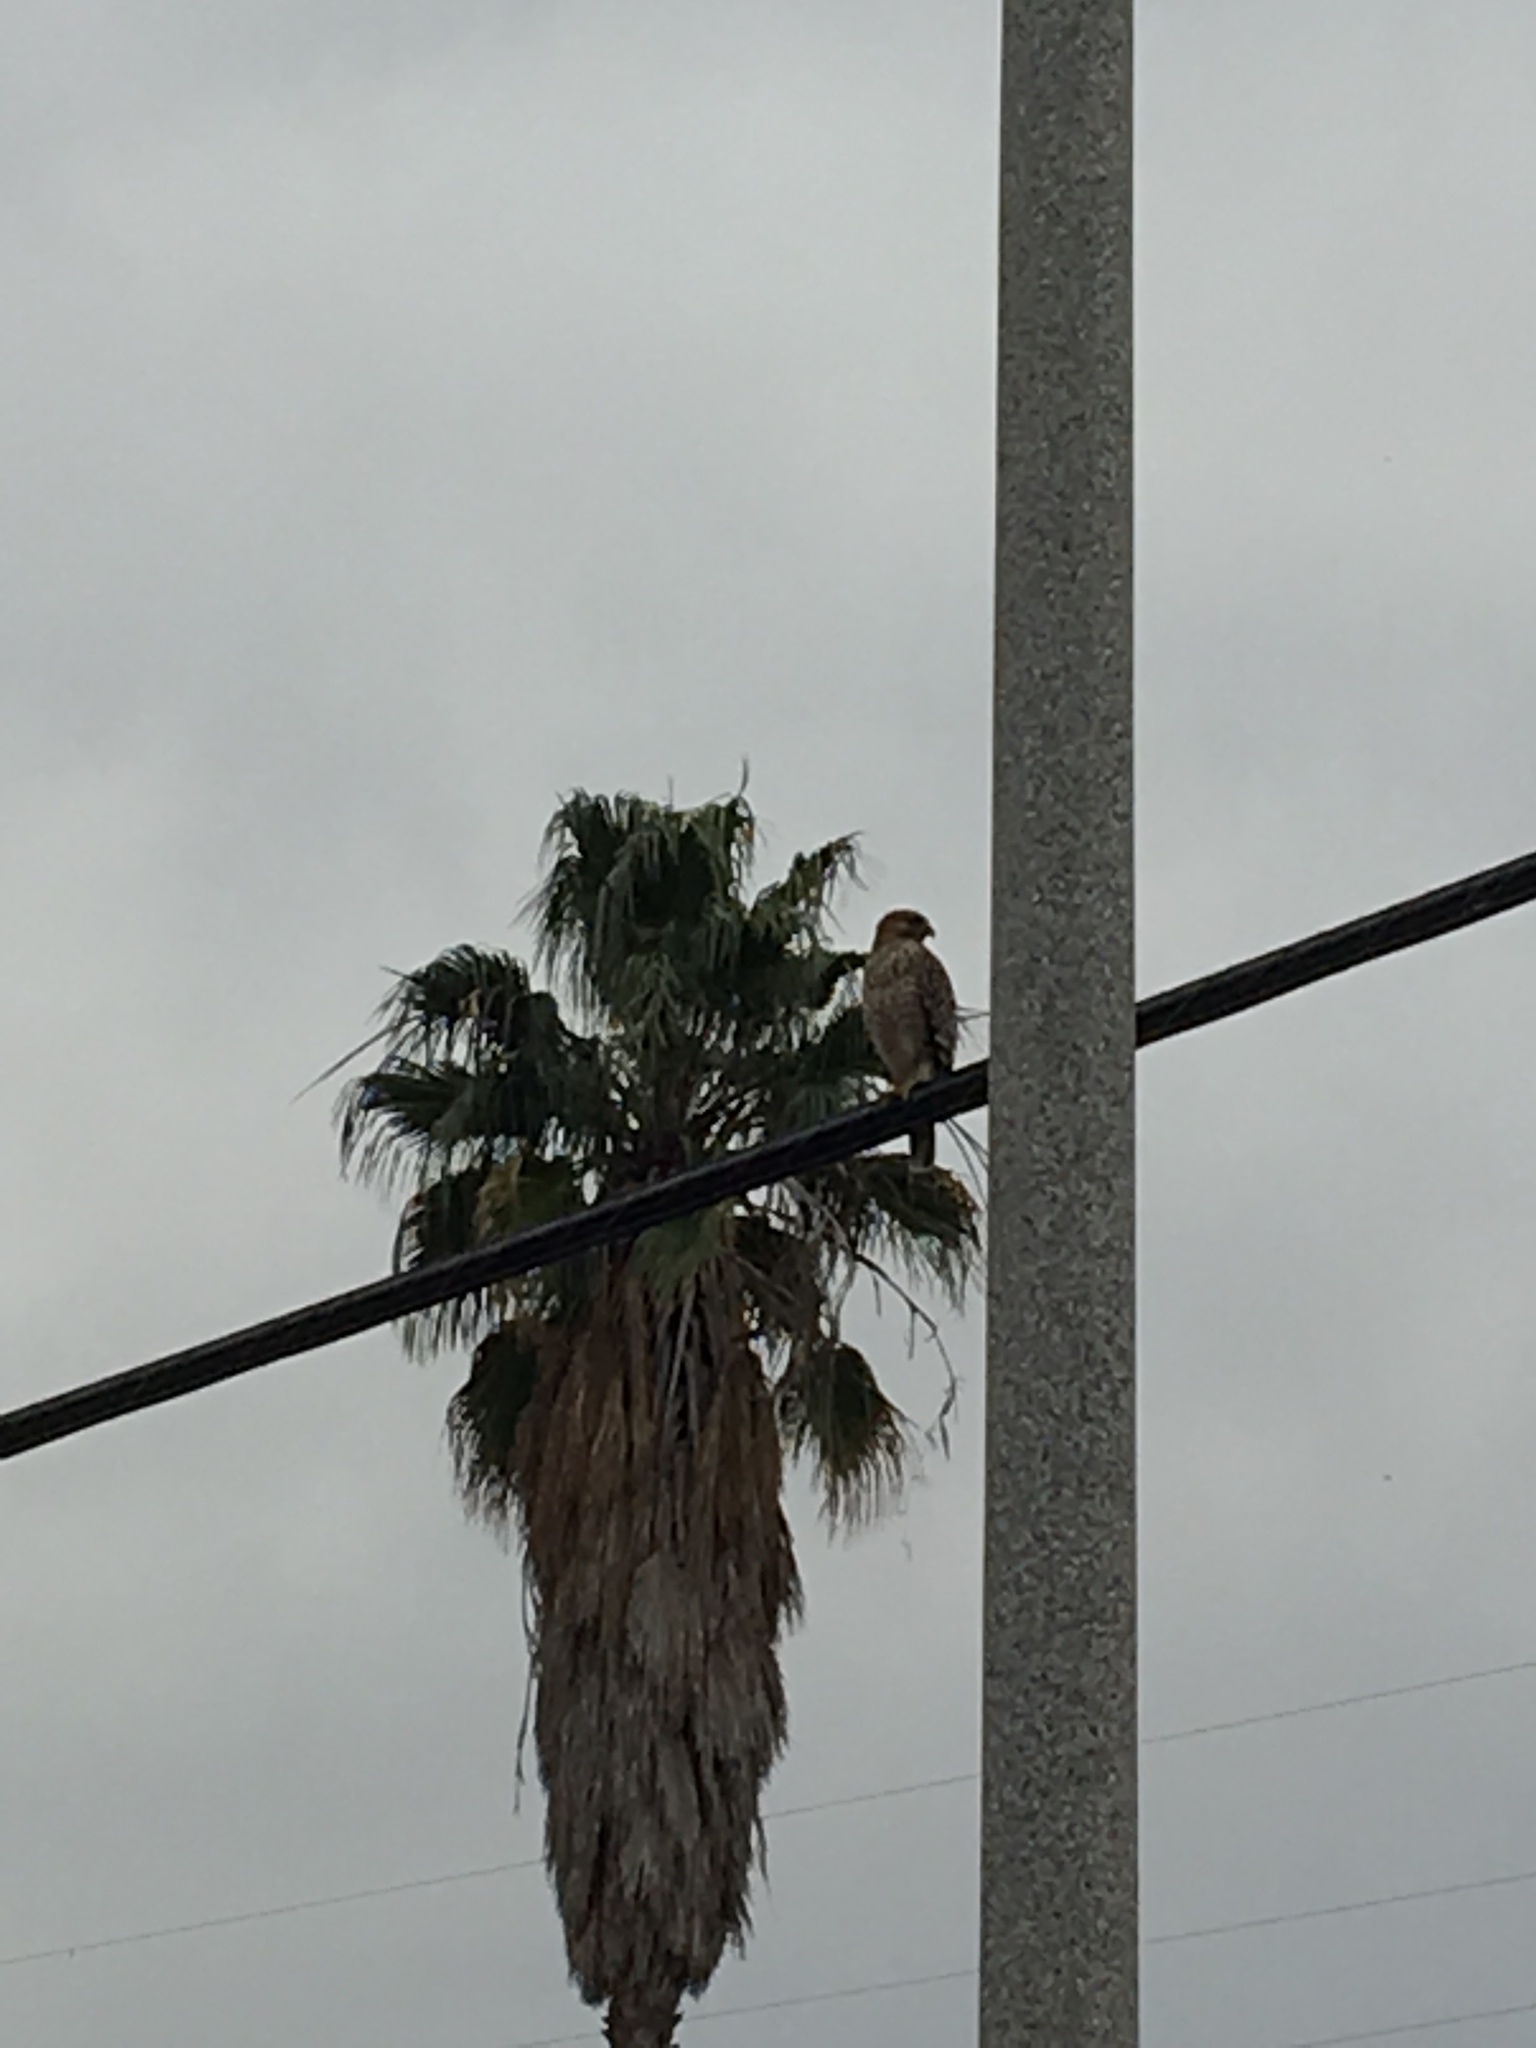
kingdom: Animalia
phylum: Chordata
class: Aves
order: Accipitriformes
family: Accipitridae
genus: Buteo
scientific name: Buteo lineatus
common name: Red-shouldered hawk
